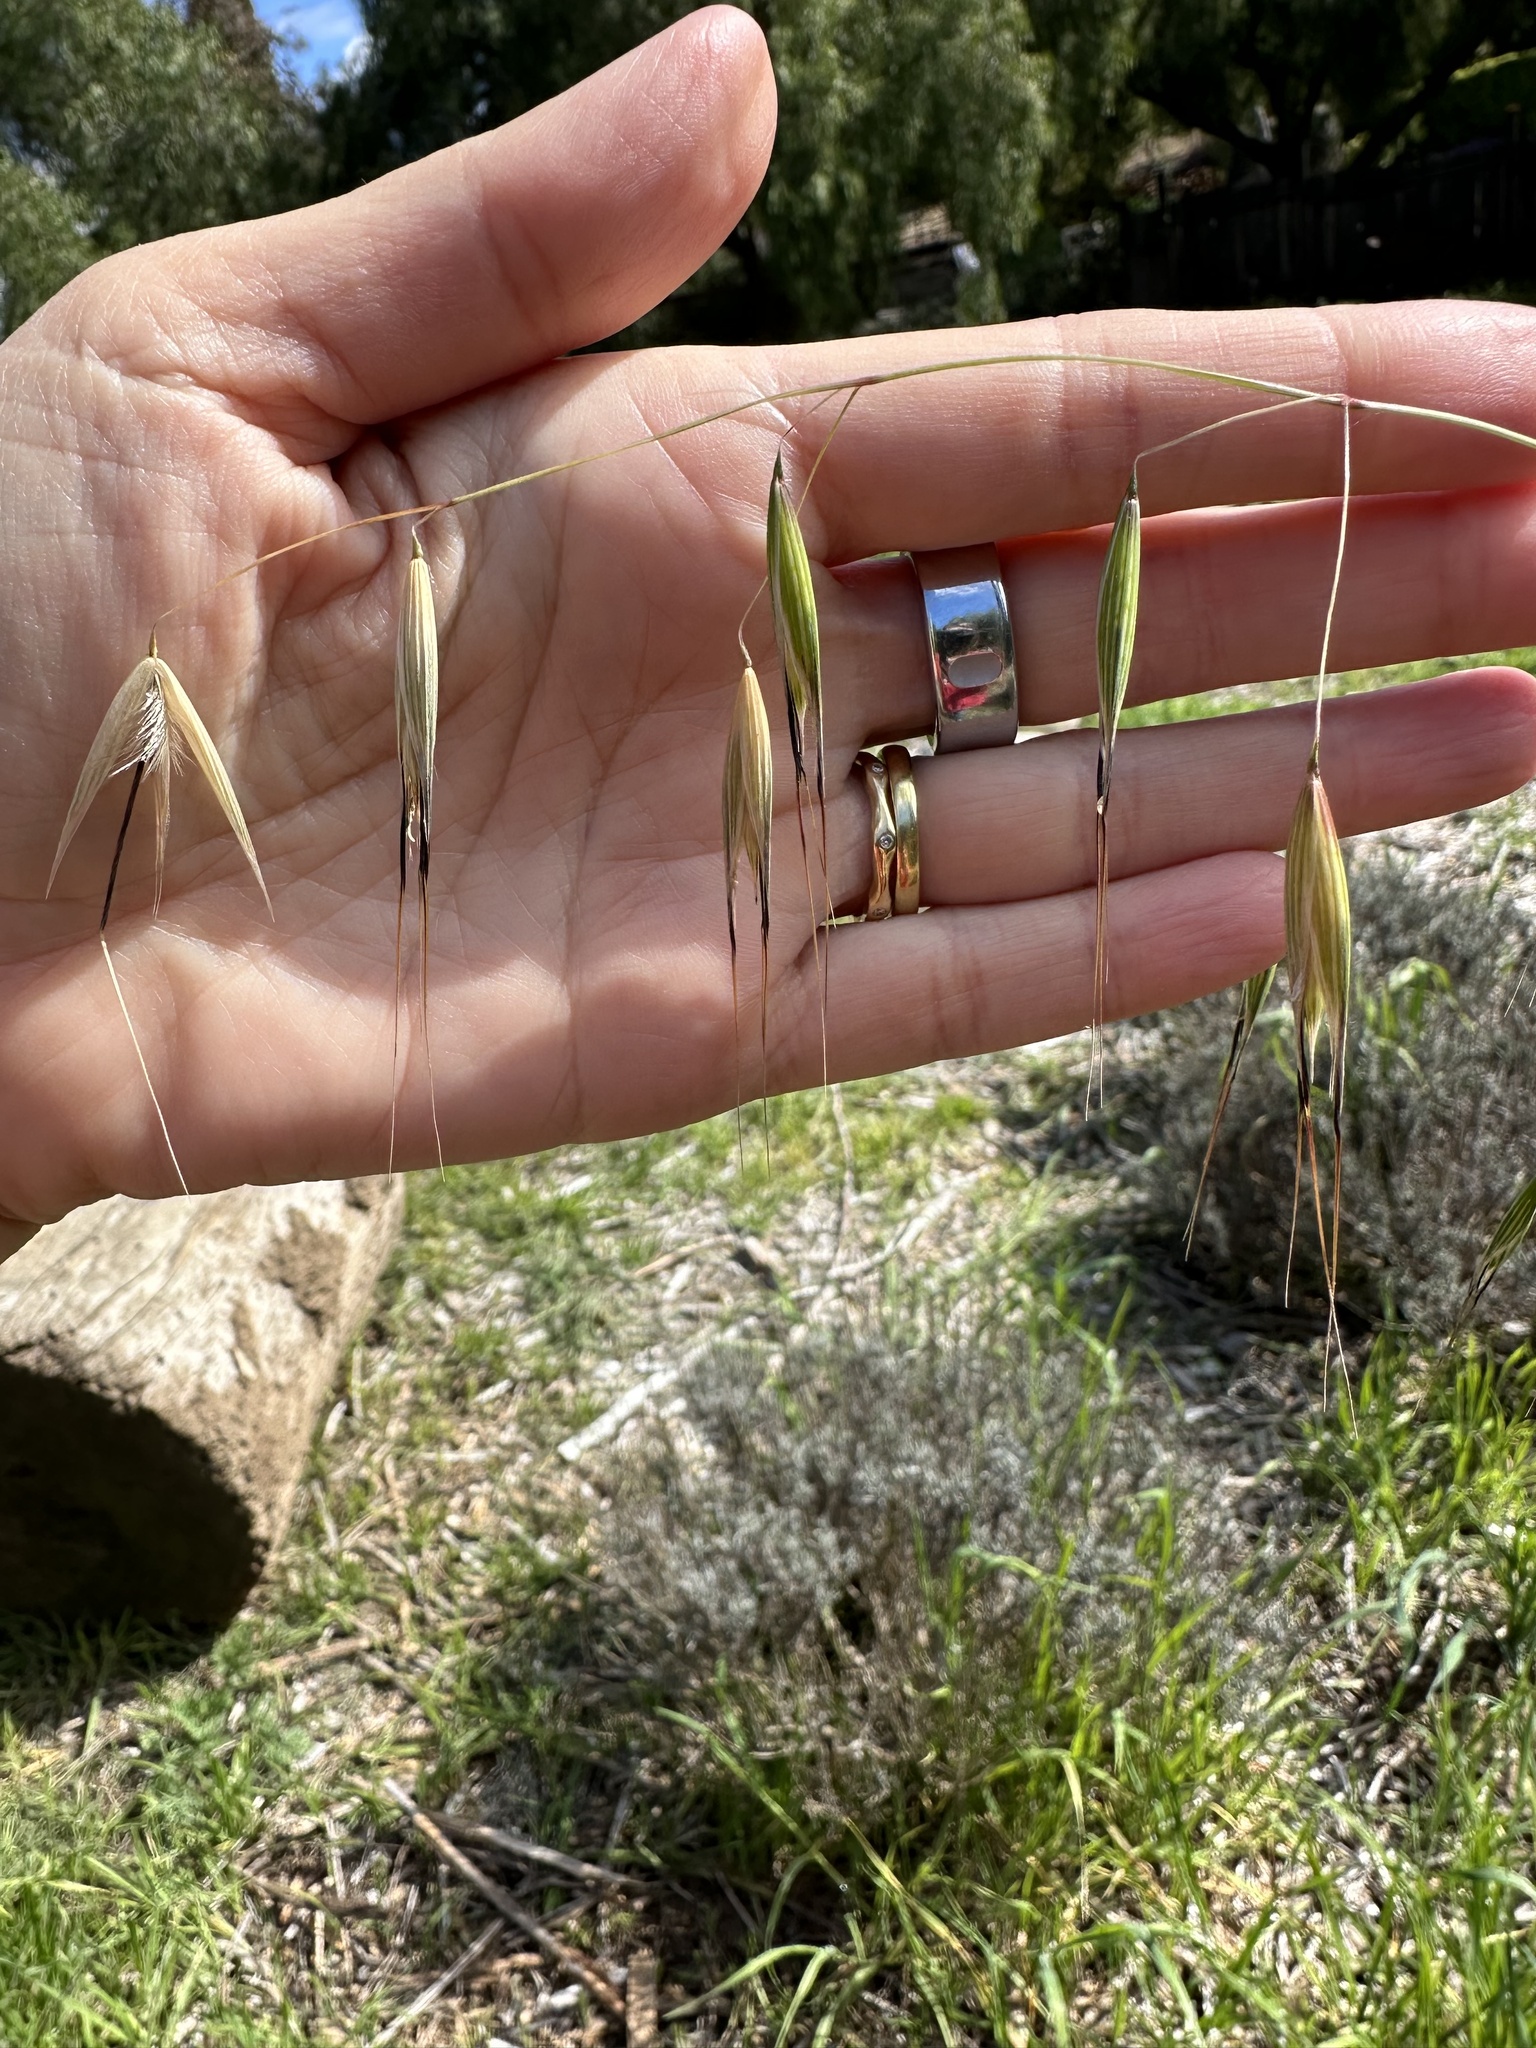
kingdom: Plantae
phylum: Tracheophyta
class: Liliopsida
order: Poales
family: Poaceae
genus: Avena
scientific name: Avena fatua
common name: Wild oat
